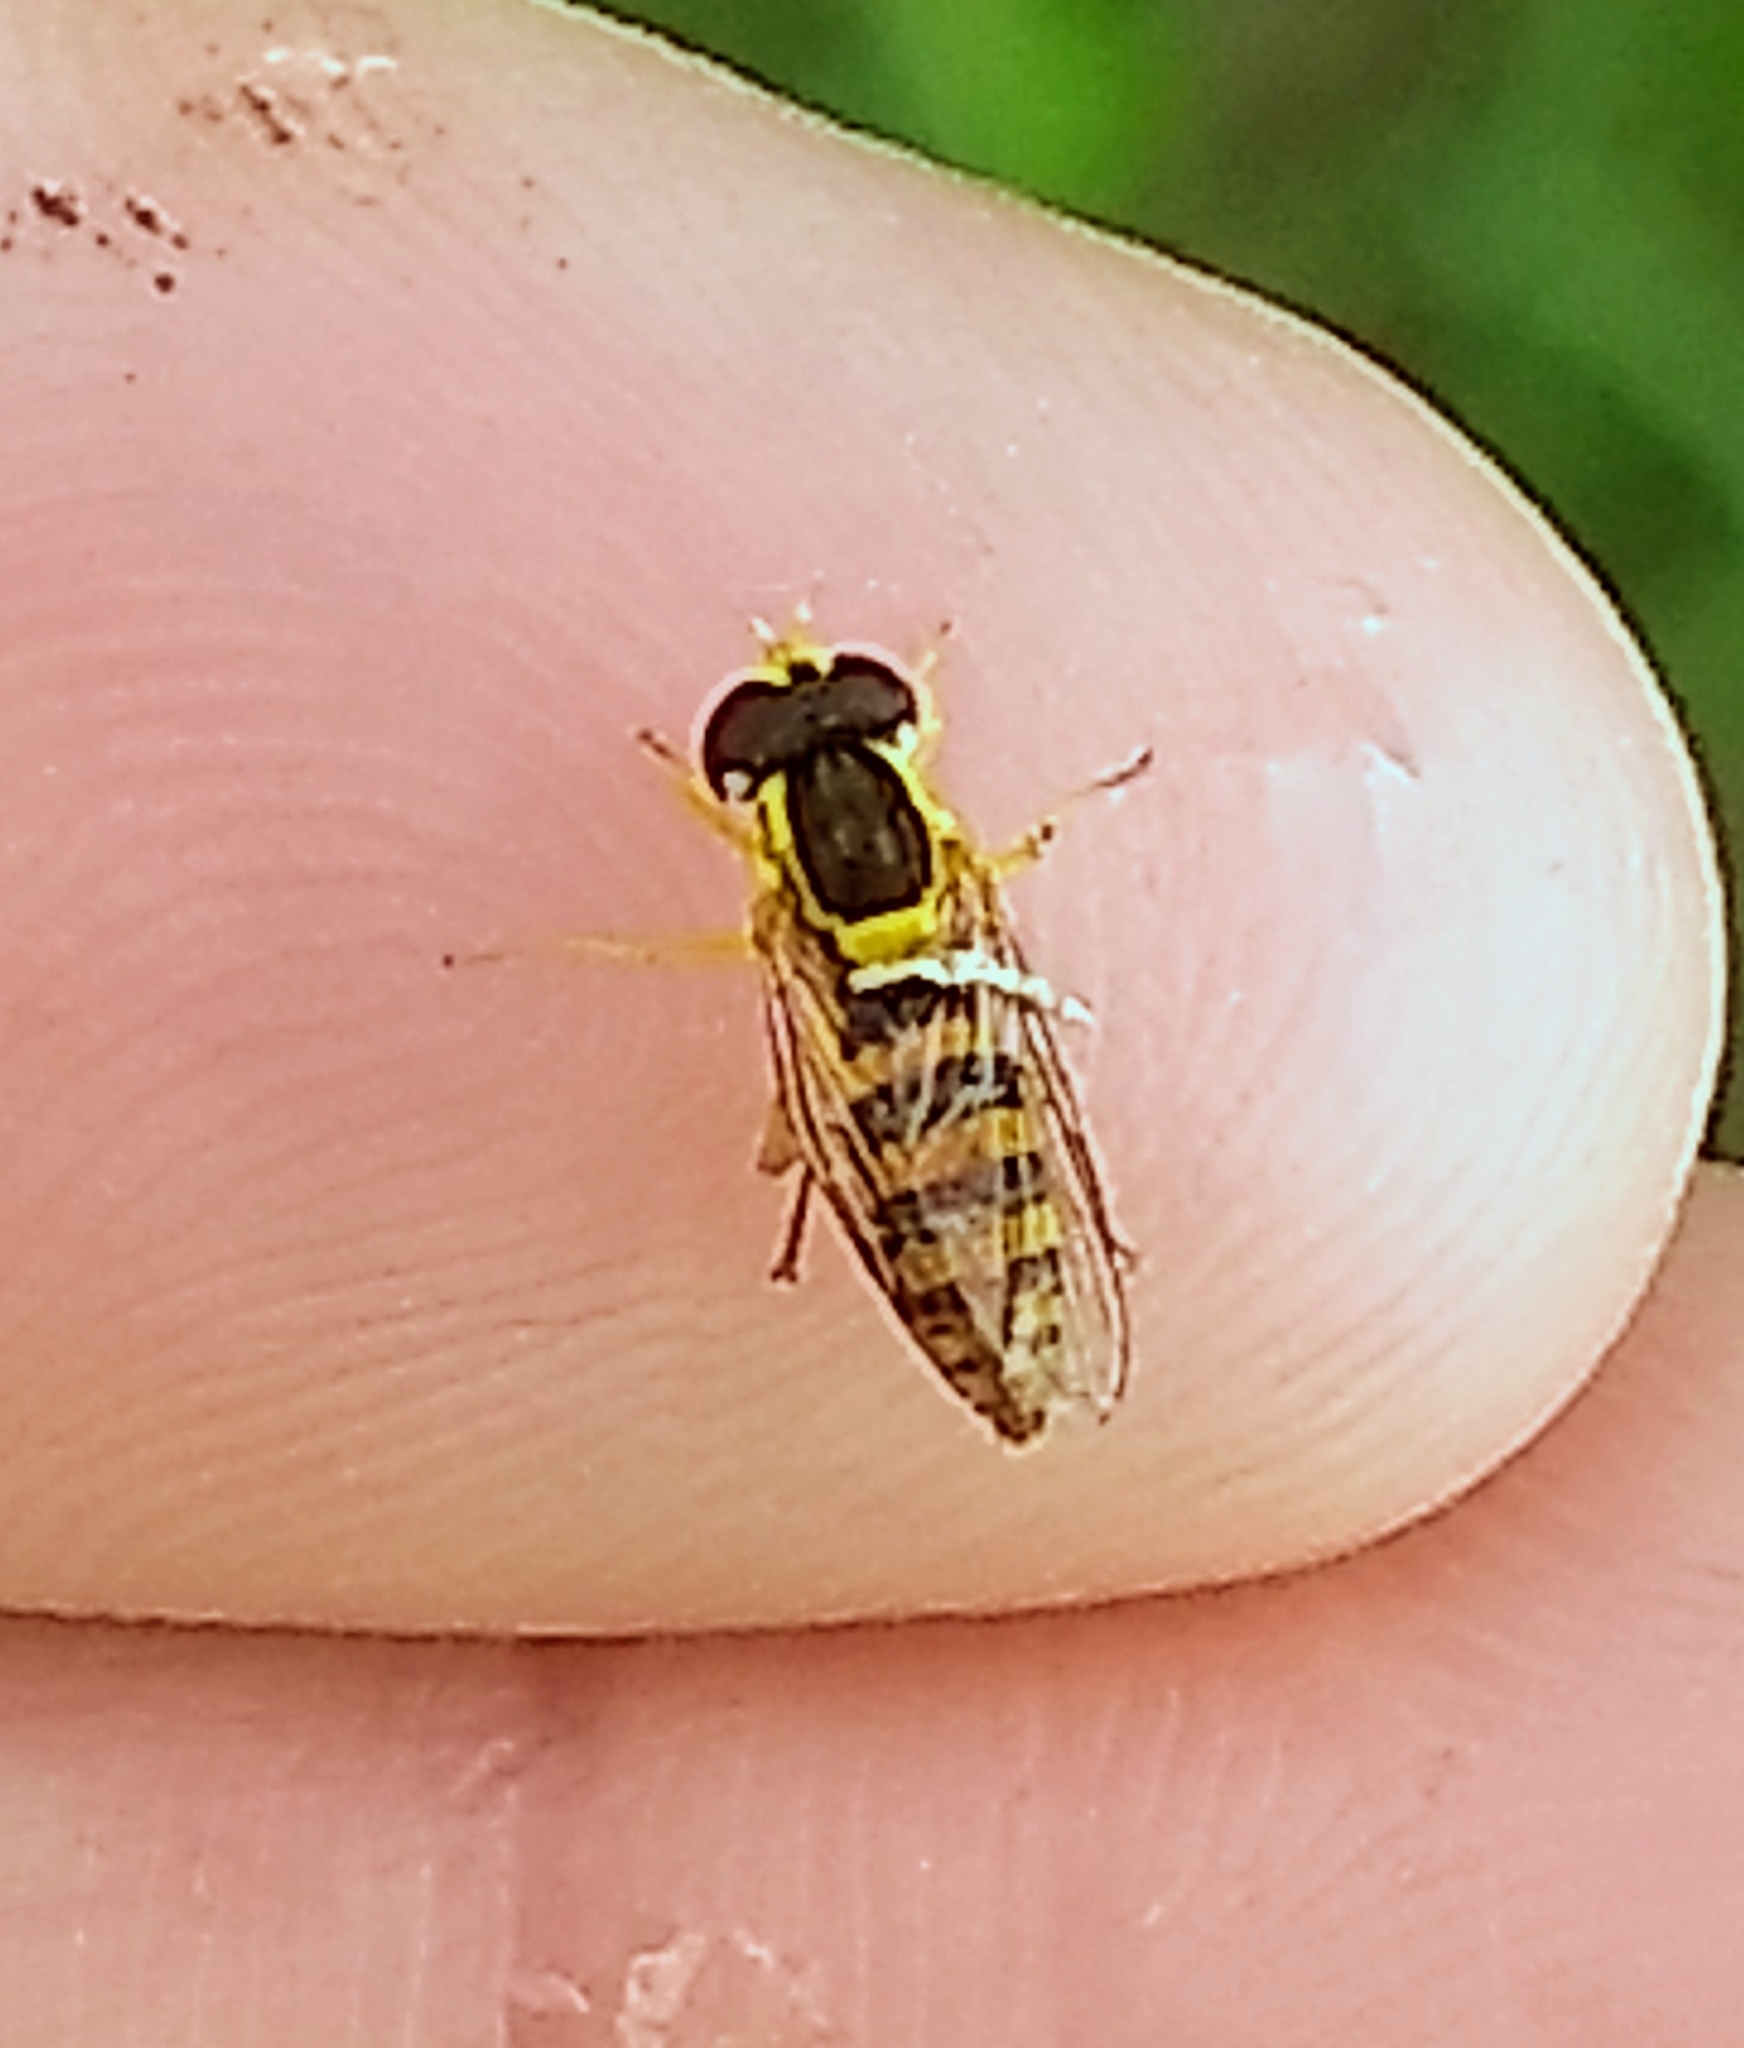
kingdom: Animalia
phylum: Arthropoda
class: Insecta
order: Diptera
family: Syrphidae
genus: Sphaerophoria
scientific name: Sphaerophoria
